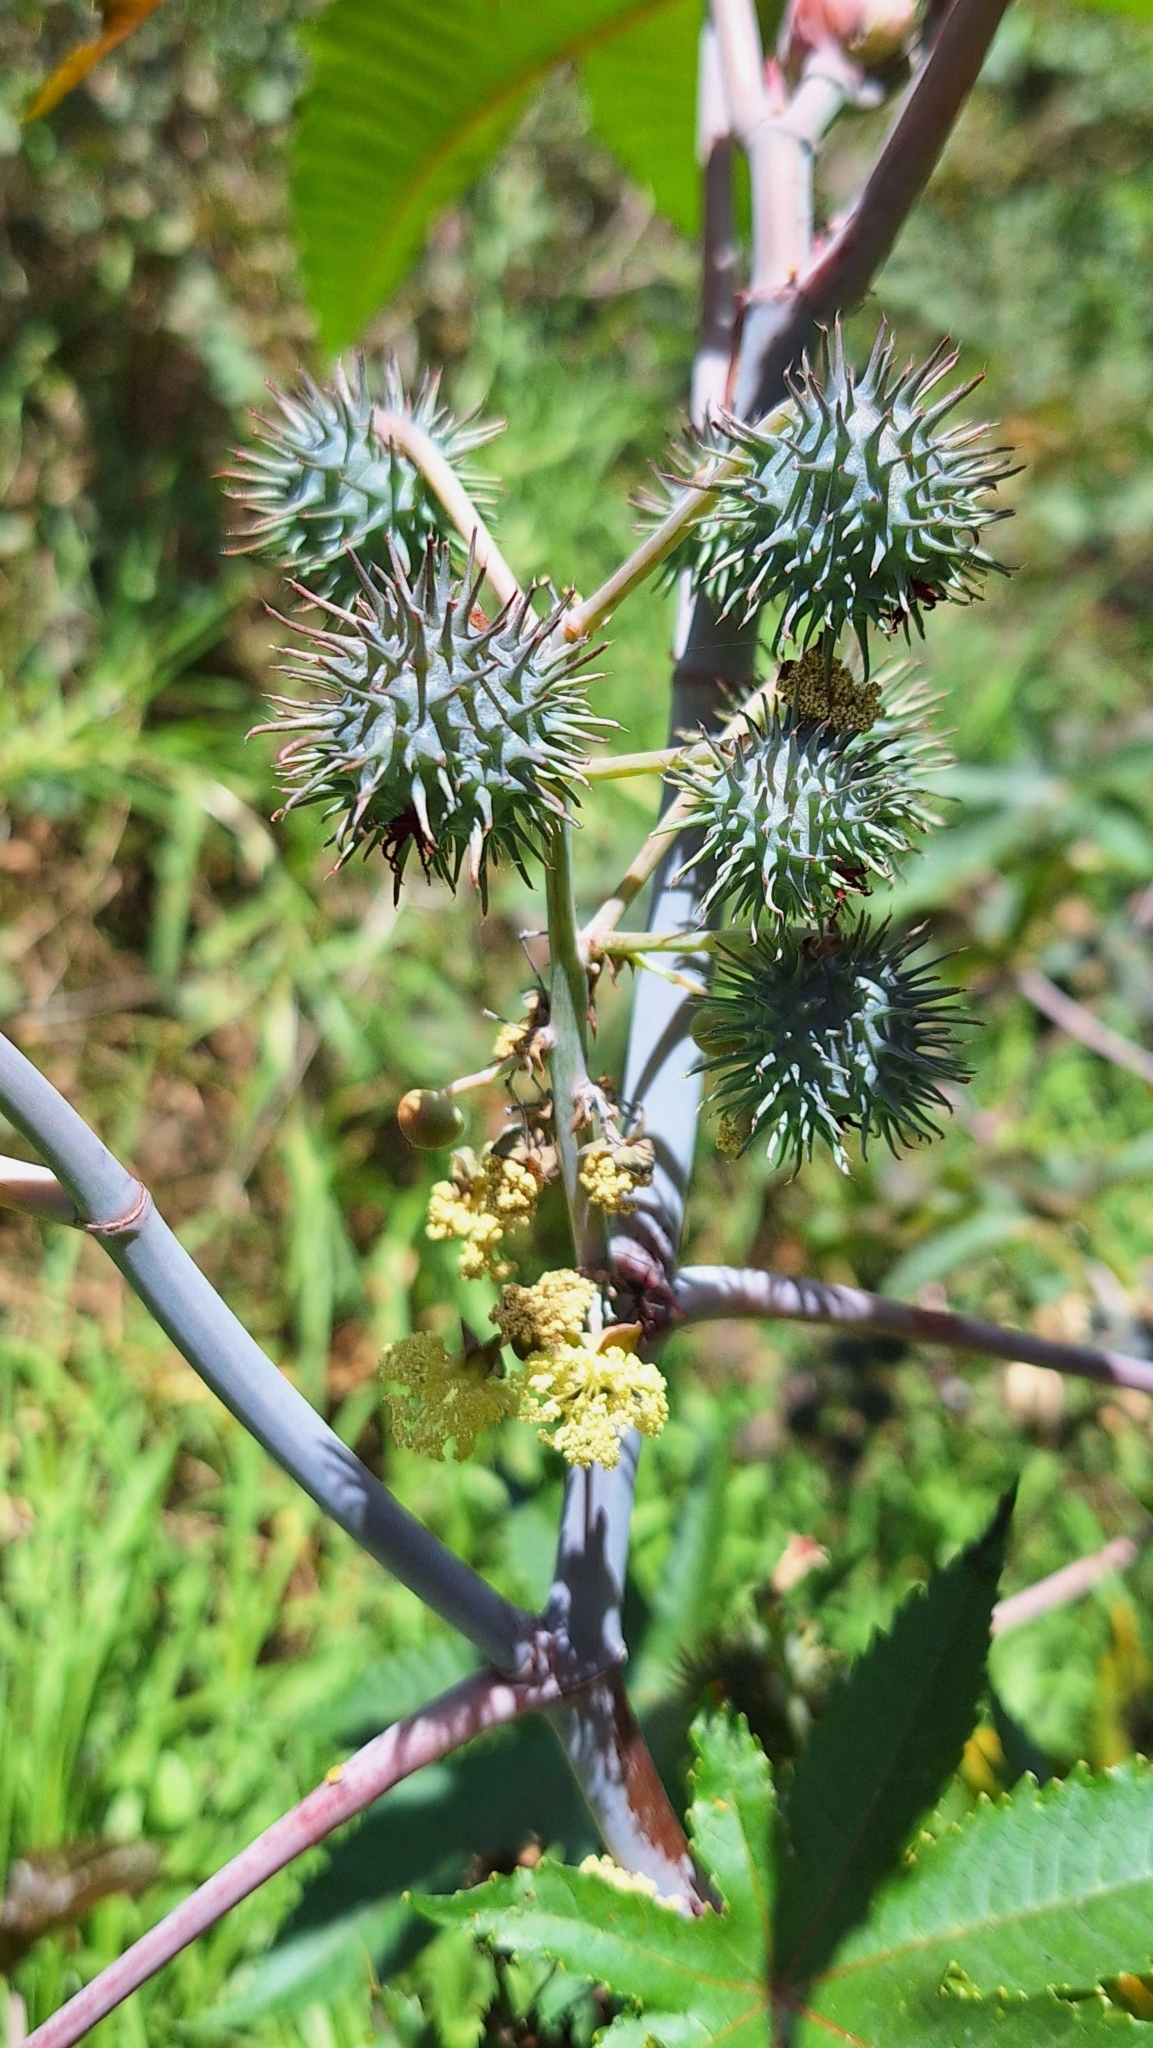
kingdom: Plantae
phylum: Tracheophyta
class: Magnoliopsida
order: Malpighiales
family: Euphorbiaceae
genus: Ricinus
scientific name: Ricinus communis
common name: Castor-oil-plant
